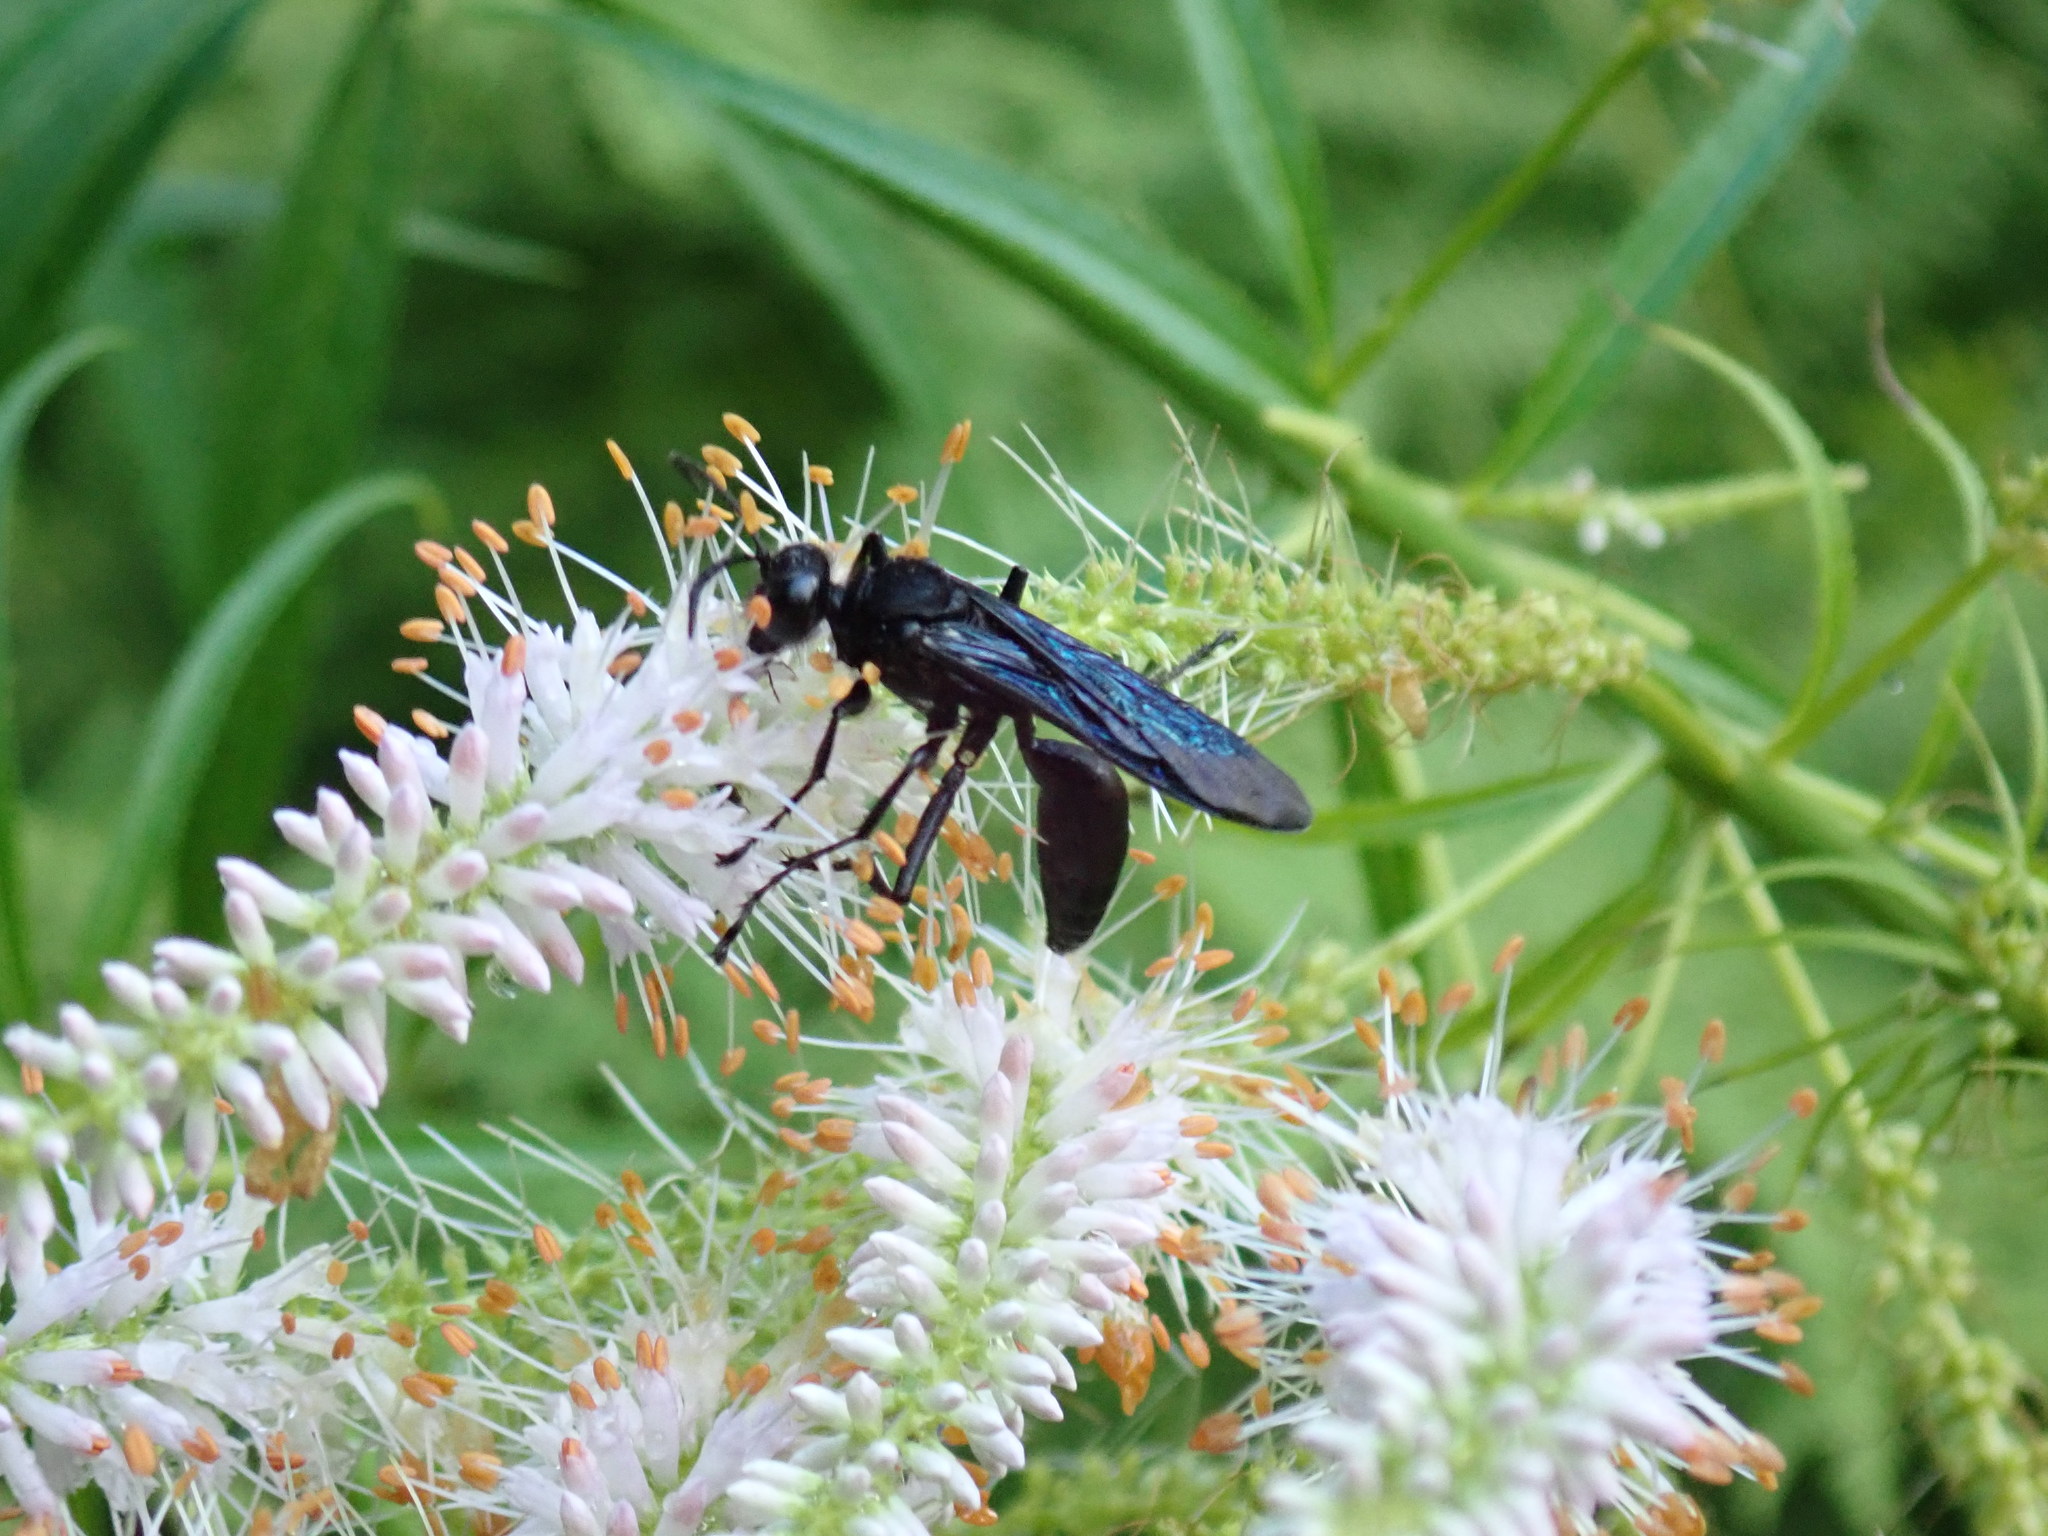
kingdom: Animalia
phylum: Arthropoda
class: Insecta
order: Hymenoptera
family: Sphecidae
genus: Sphex
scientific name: Sphex pensylvanicus
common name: Great black digger wasp
